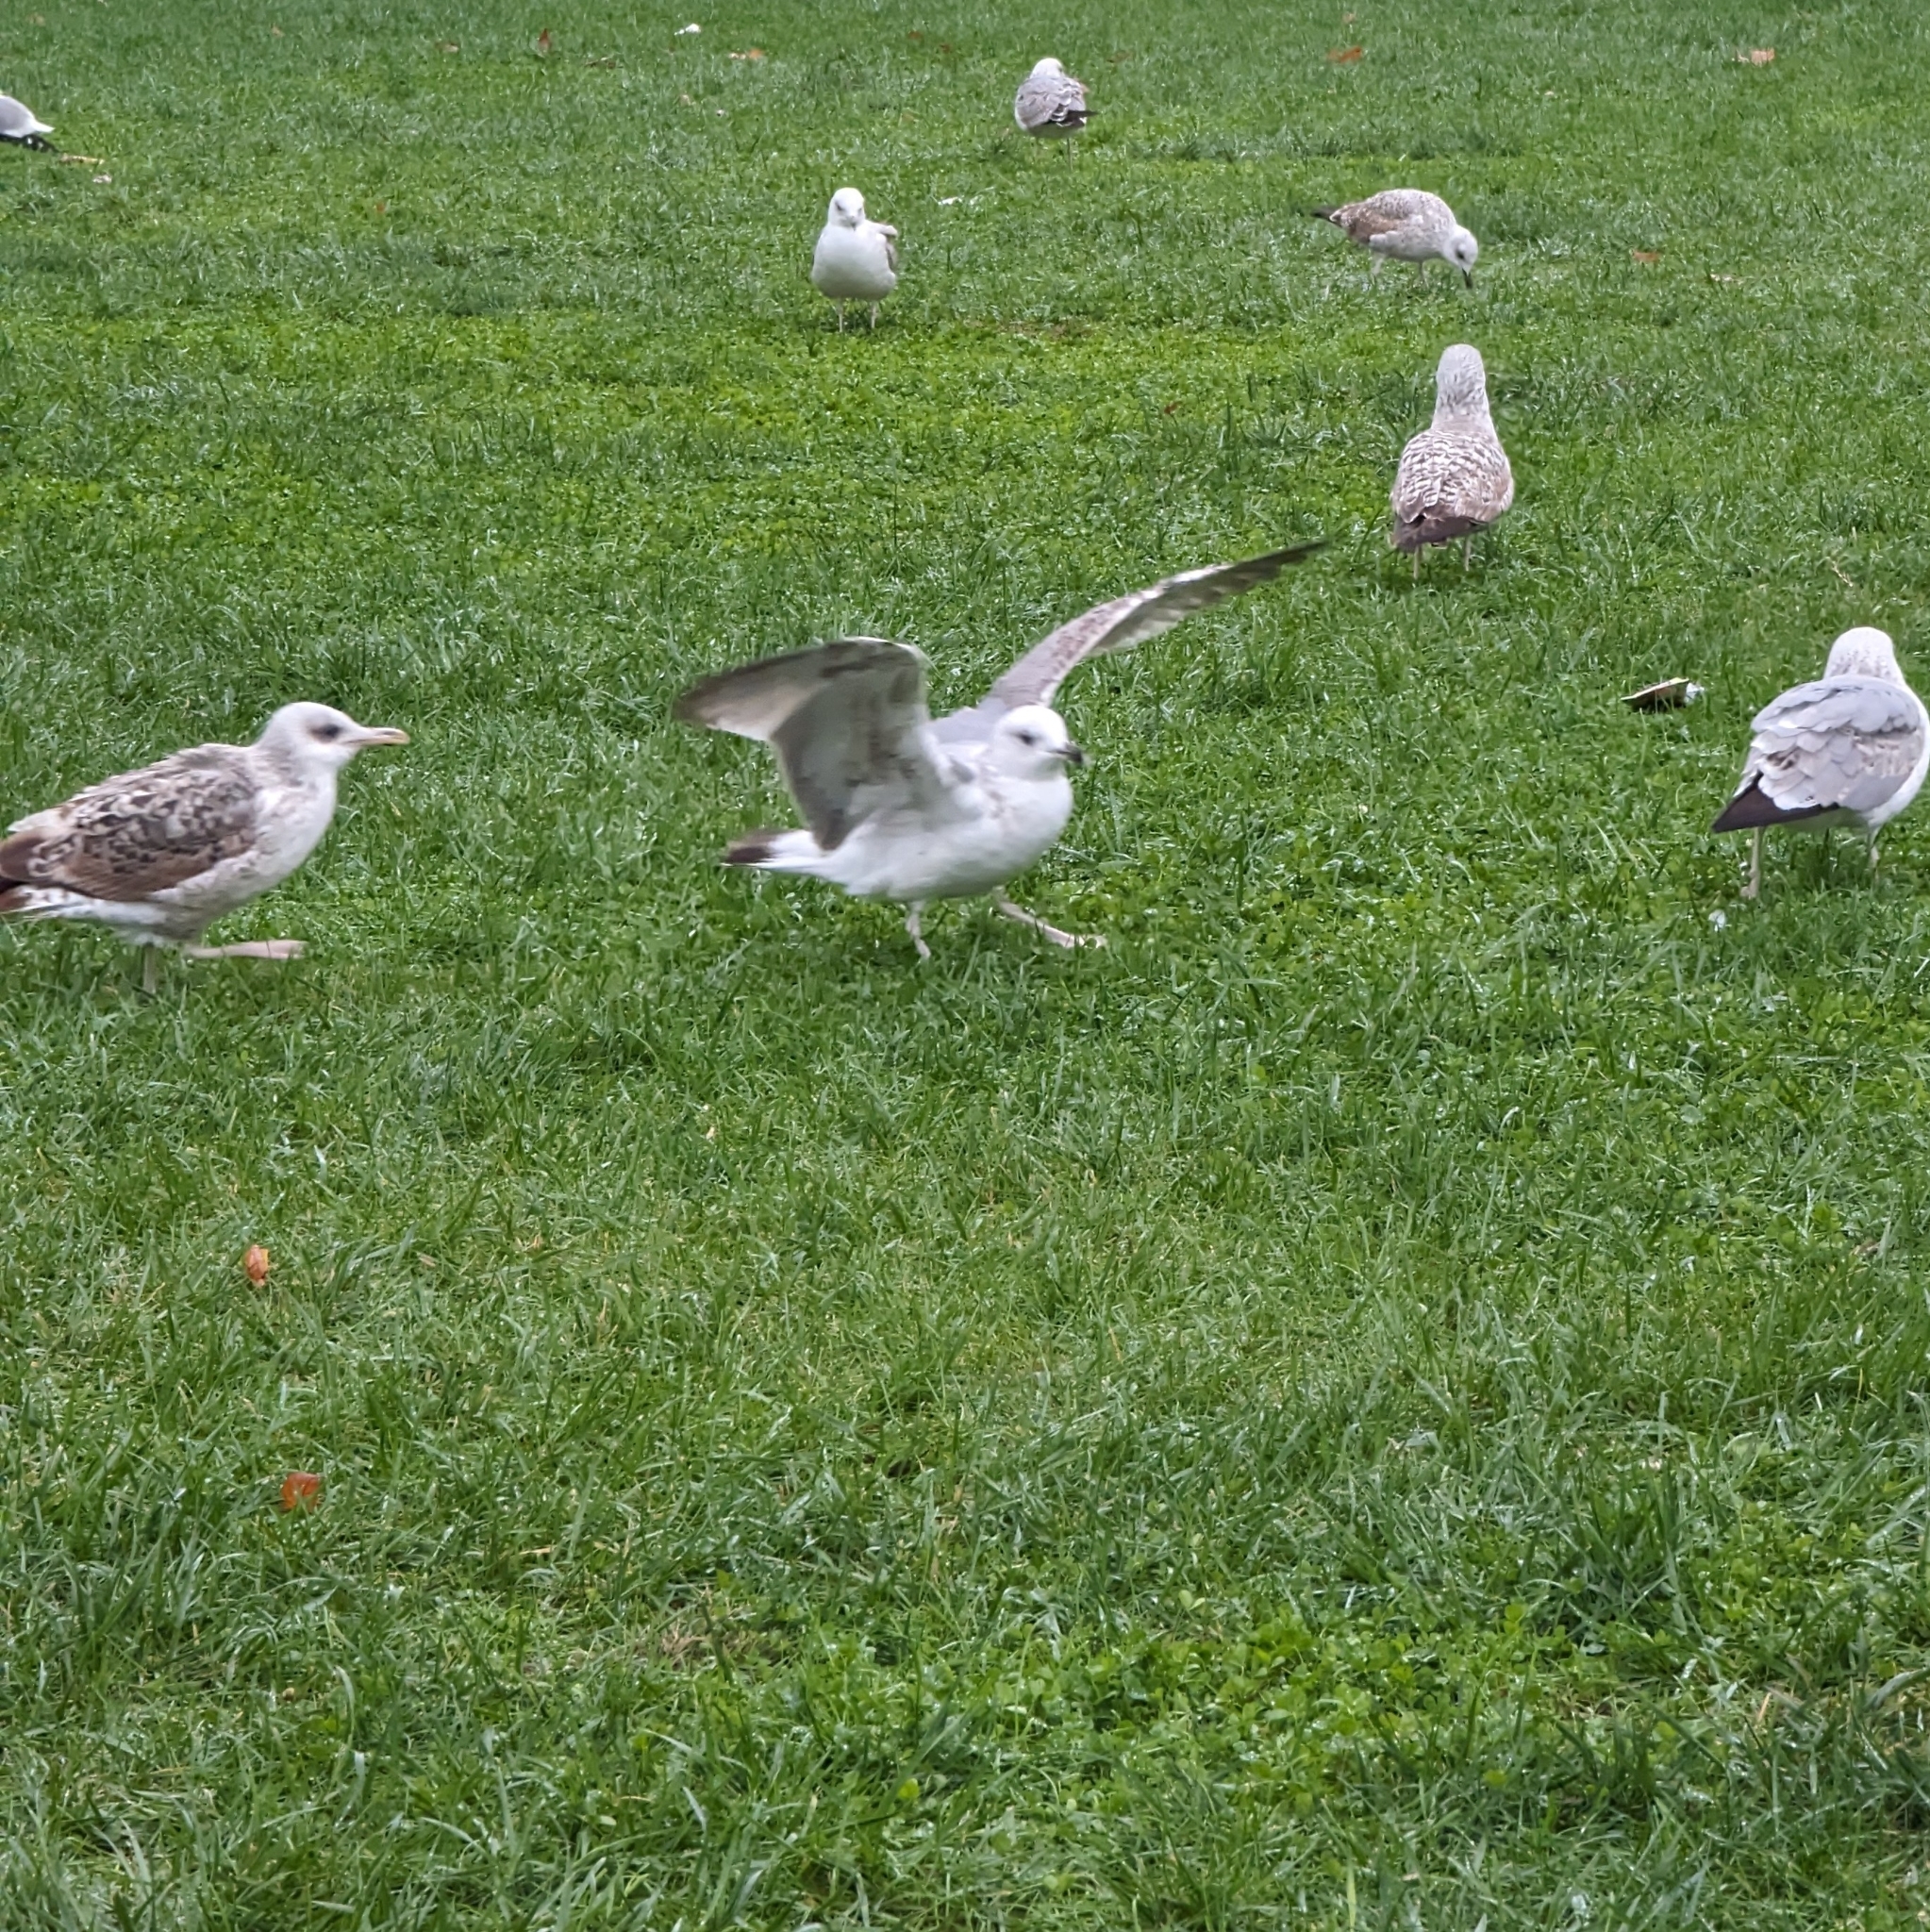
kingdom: Animalia
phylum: Chordata
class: Aves
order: Charadriiformes
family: Laridae
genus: Larus
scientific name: Larus michahellis
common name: Yellow-legged gull
